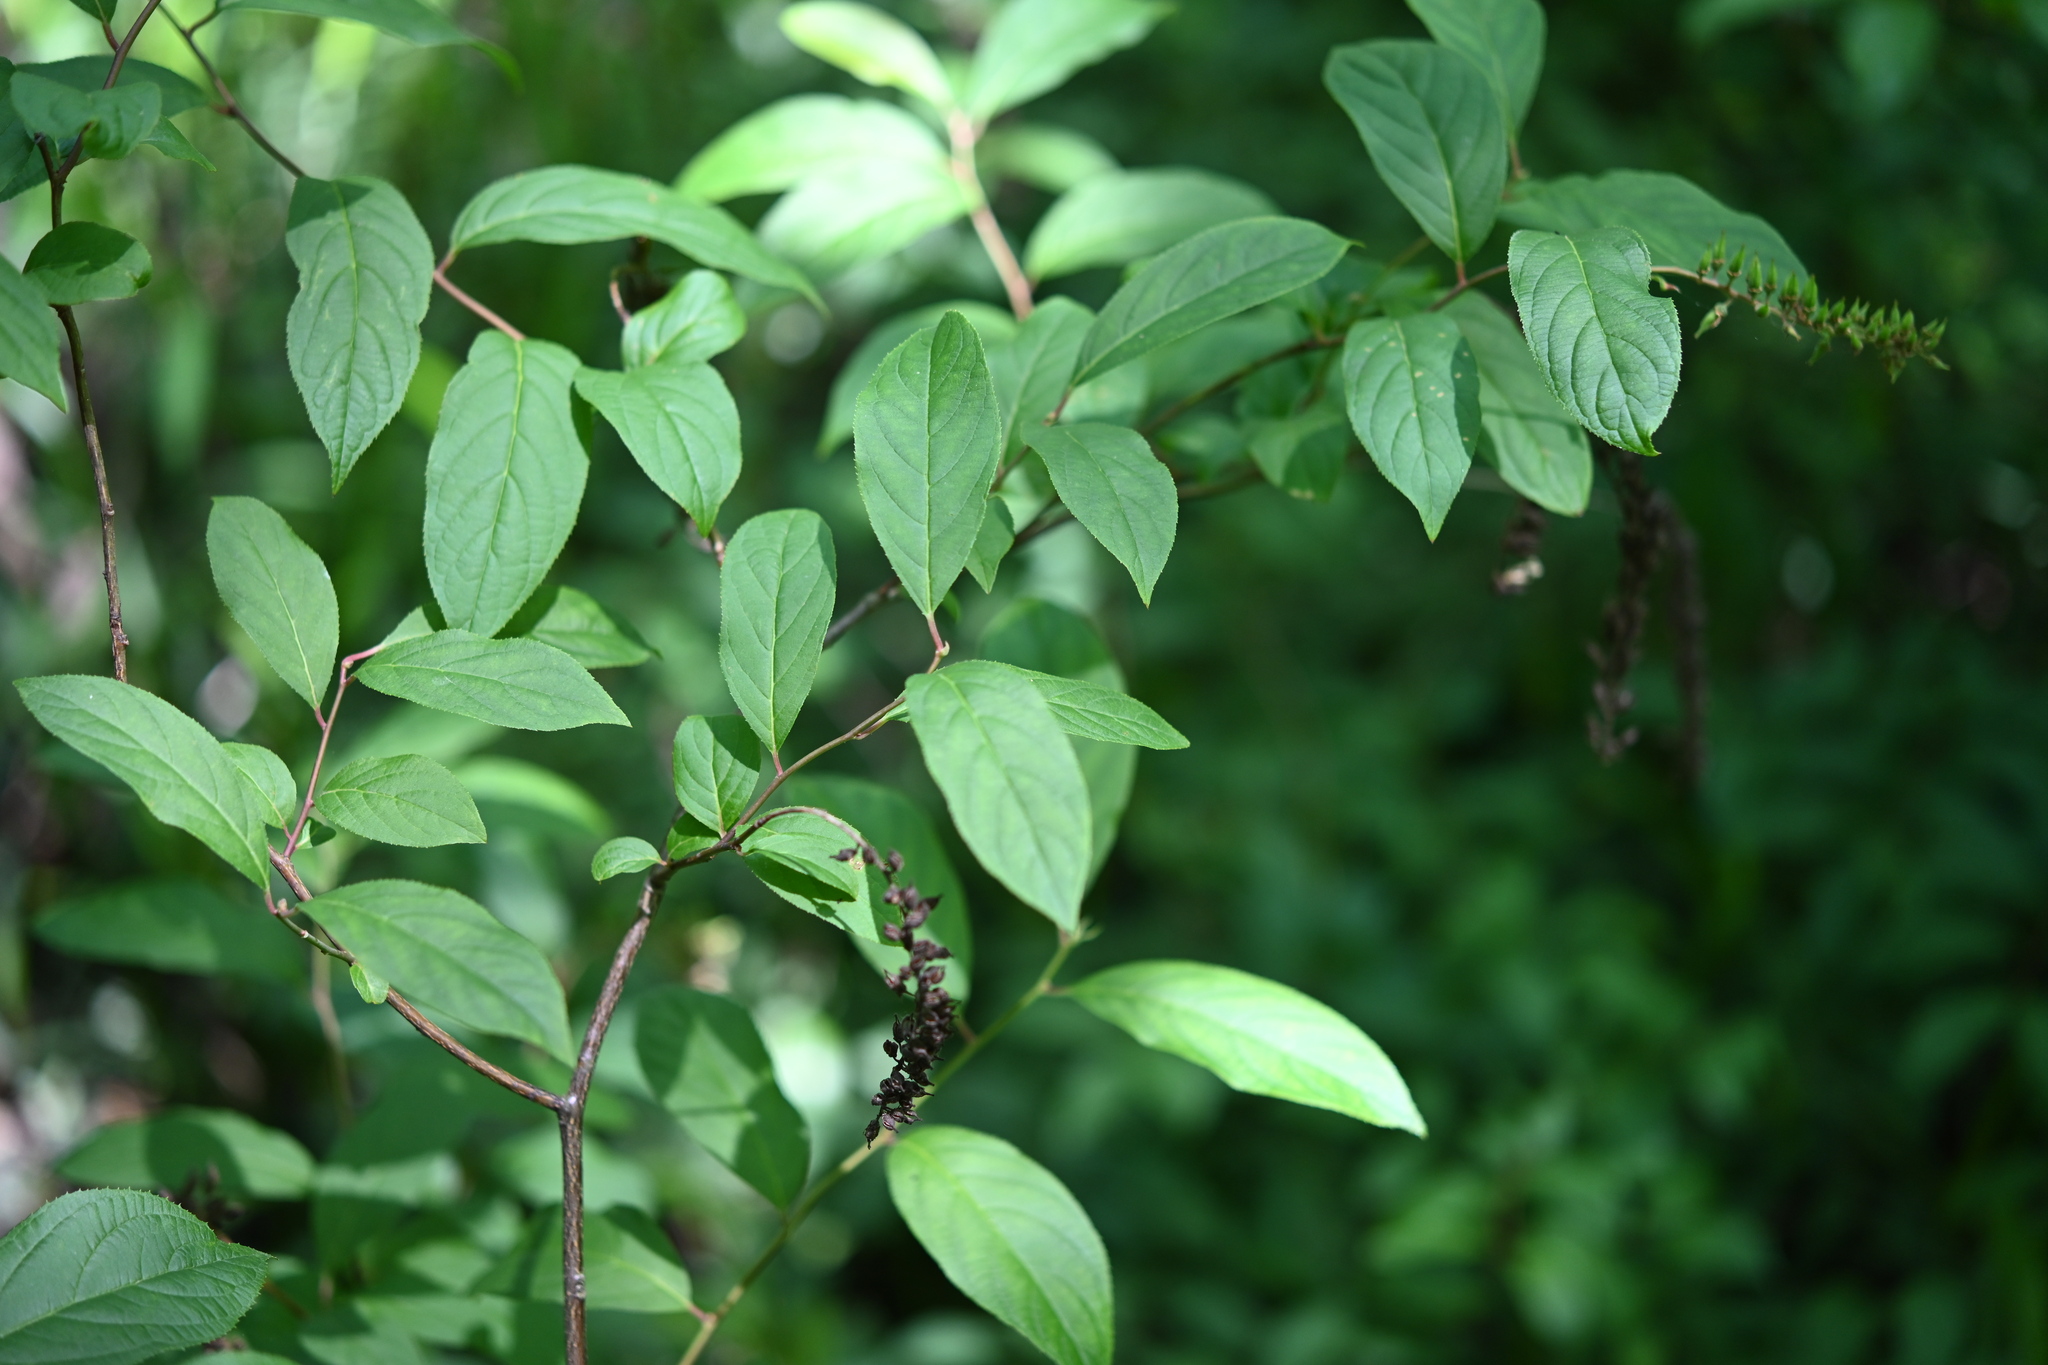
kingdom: Plantae
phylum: Tracheophyta
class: Magnoliopsida
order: Saxifragales
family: Iteaceae
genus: Itea
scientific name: Itea virginica
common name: Sweetspire
